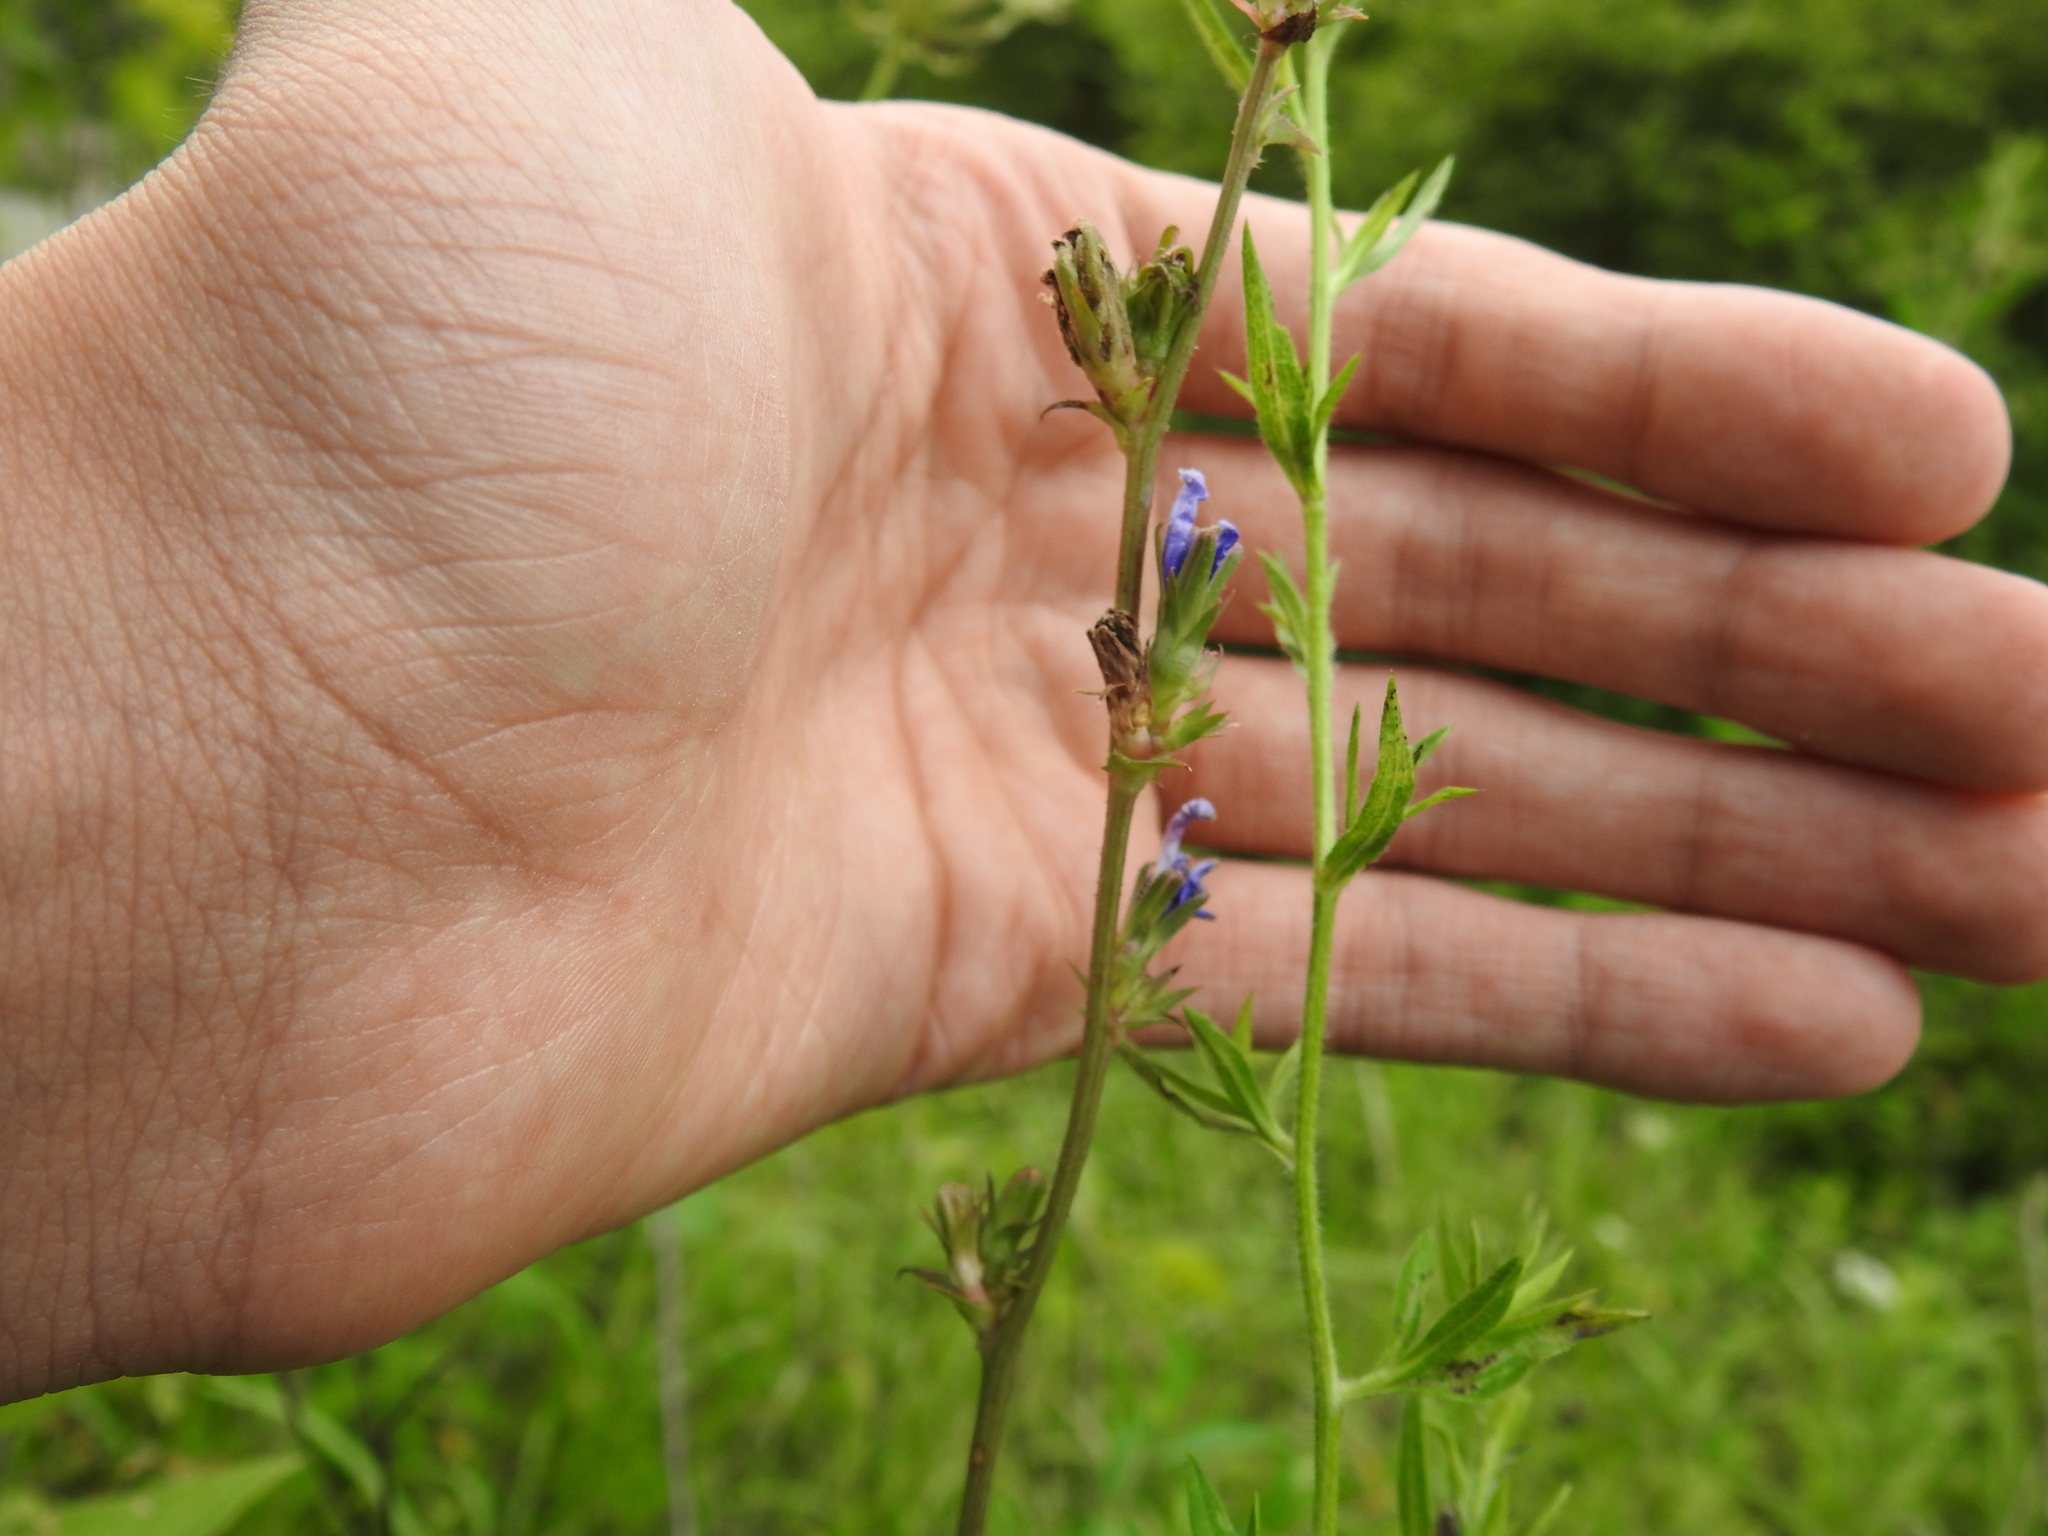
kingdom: Plantae
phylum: Tracheophyta
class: Magnoliopsida
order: Asterales
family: Asteraceae
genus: Cichorium
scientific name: Cichorium intybus
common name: Chicory
